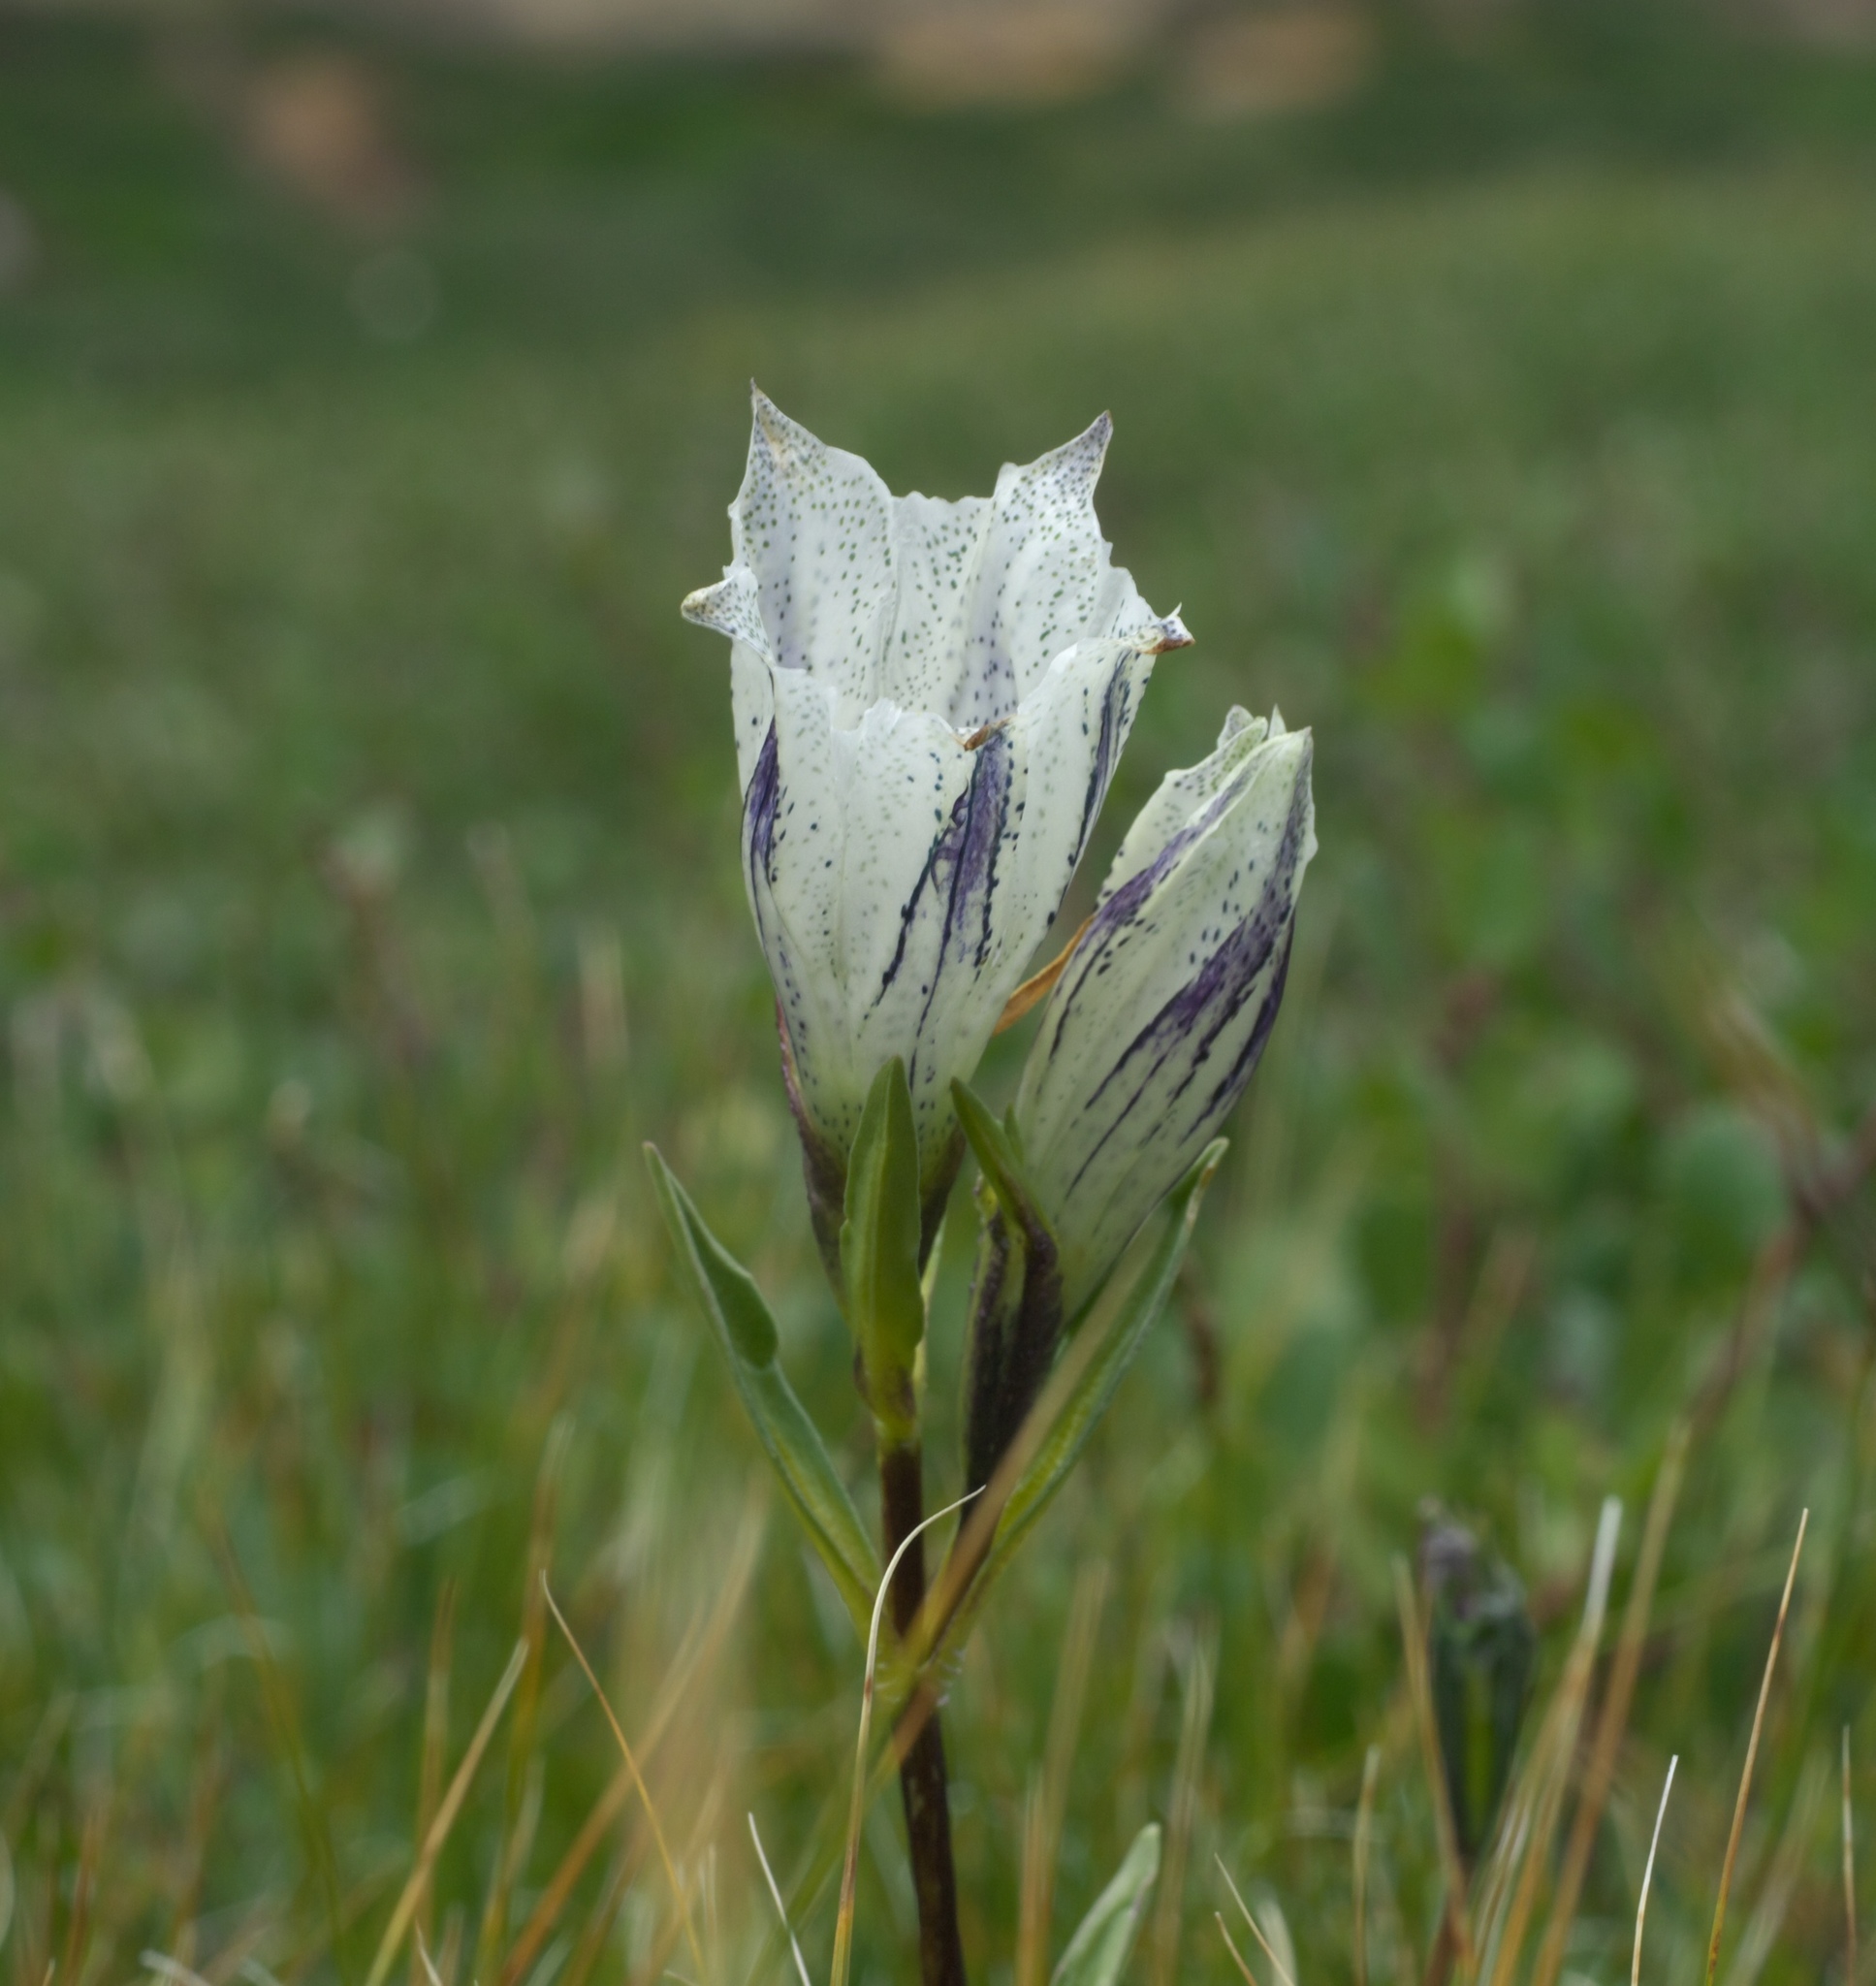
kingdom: Plantae
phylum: Tracheophyta
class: Magnoliopsida
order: Gentianales
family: Gentianaceae
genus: Gentiana
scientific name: Gentiana algida
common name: Arctic gentian
